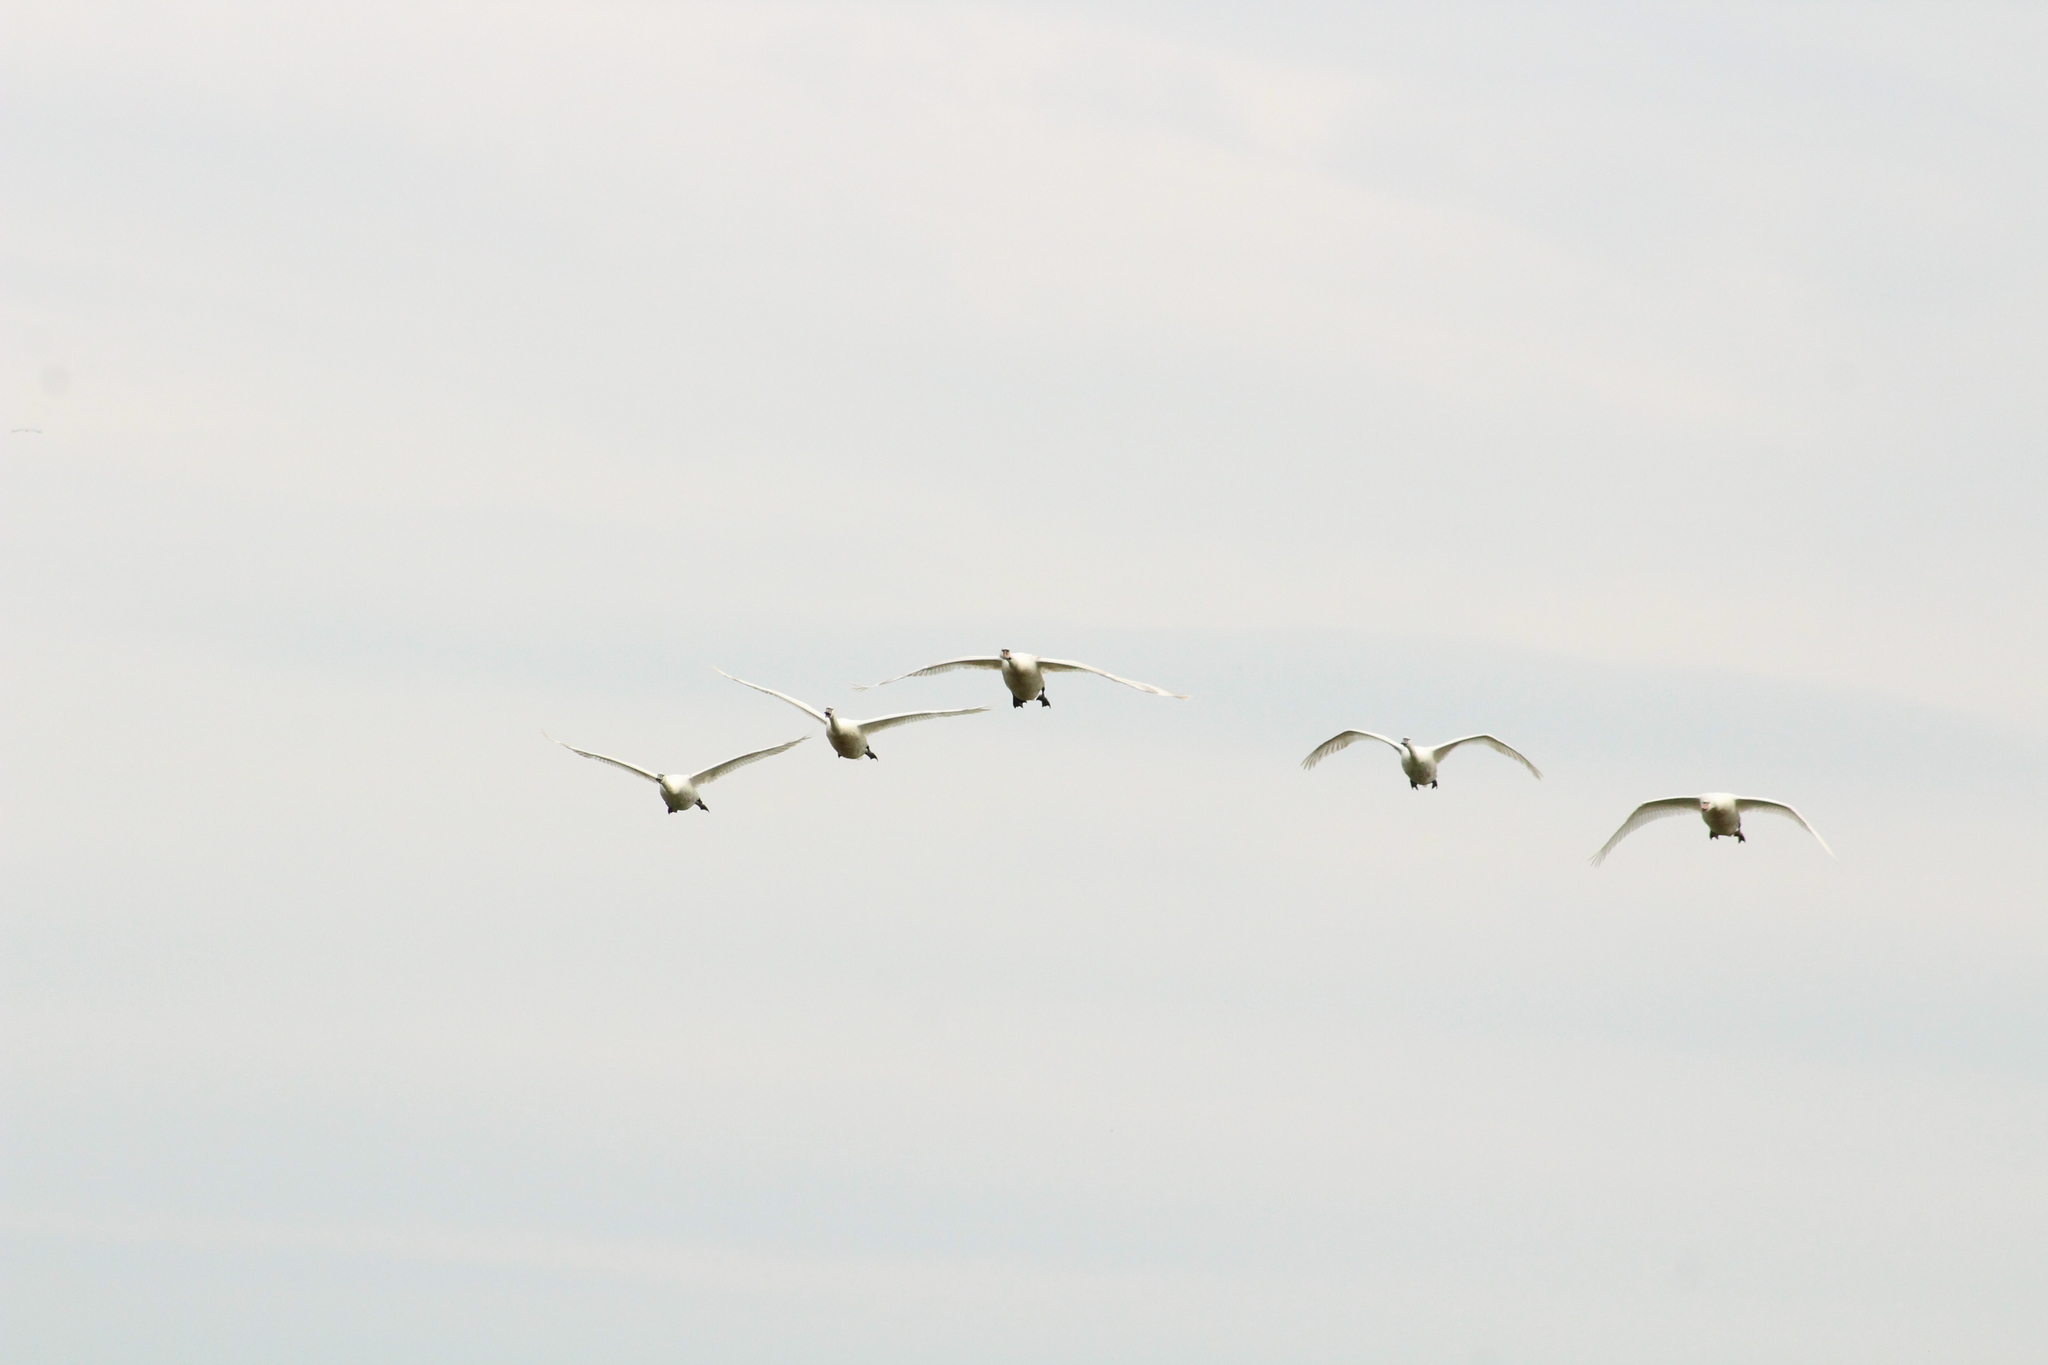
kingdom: Animalia
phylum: Chordata
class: Aves
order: Anseriformes
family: Anatidae
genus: Cygnus
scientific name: Cygnus olor
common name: Mute swan
